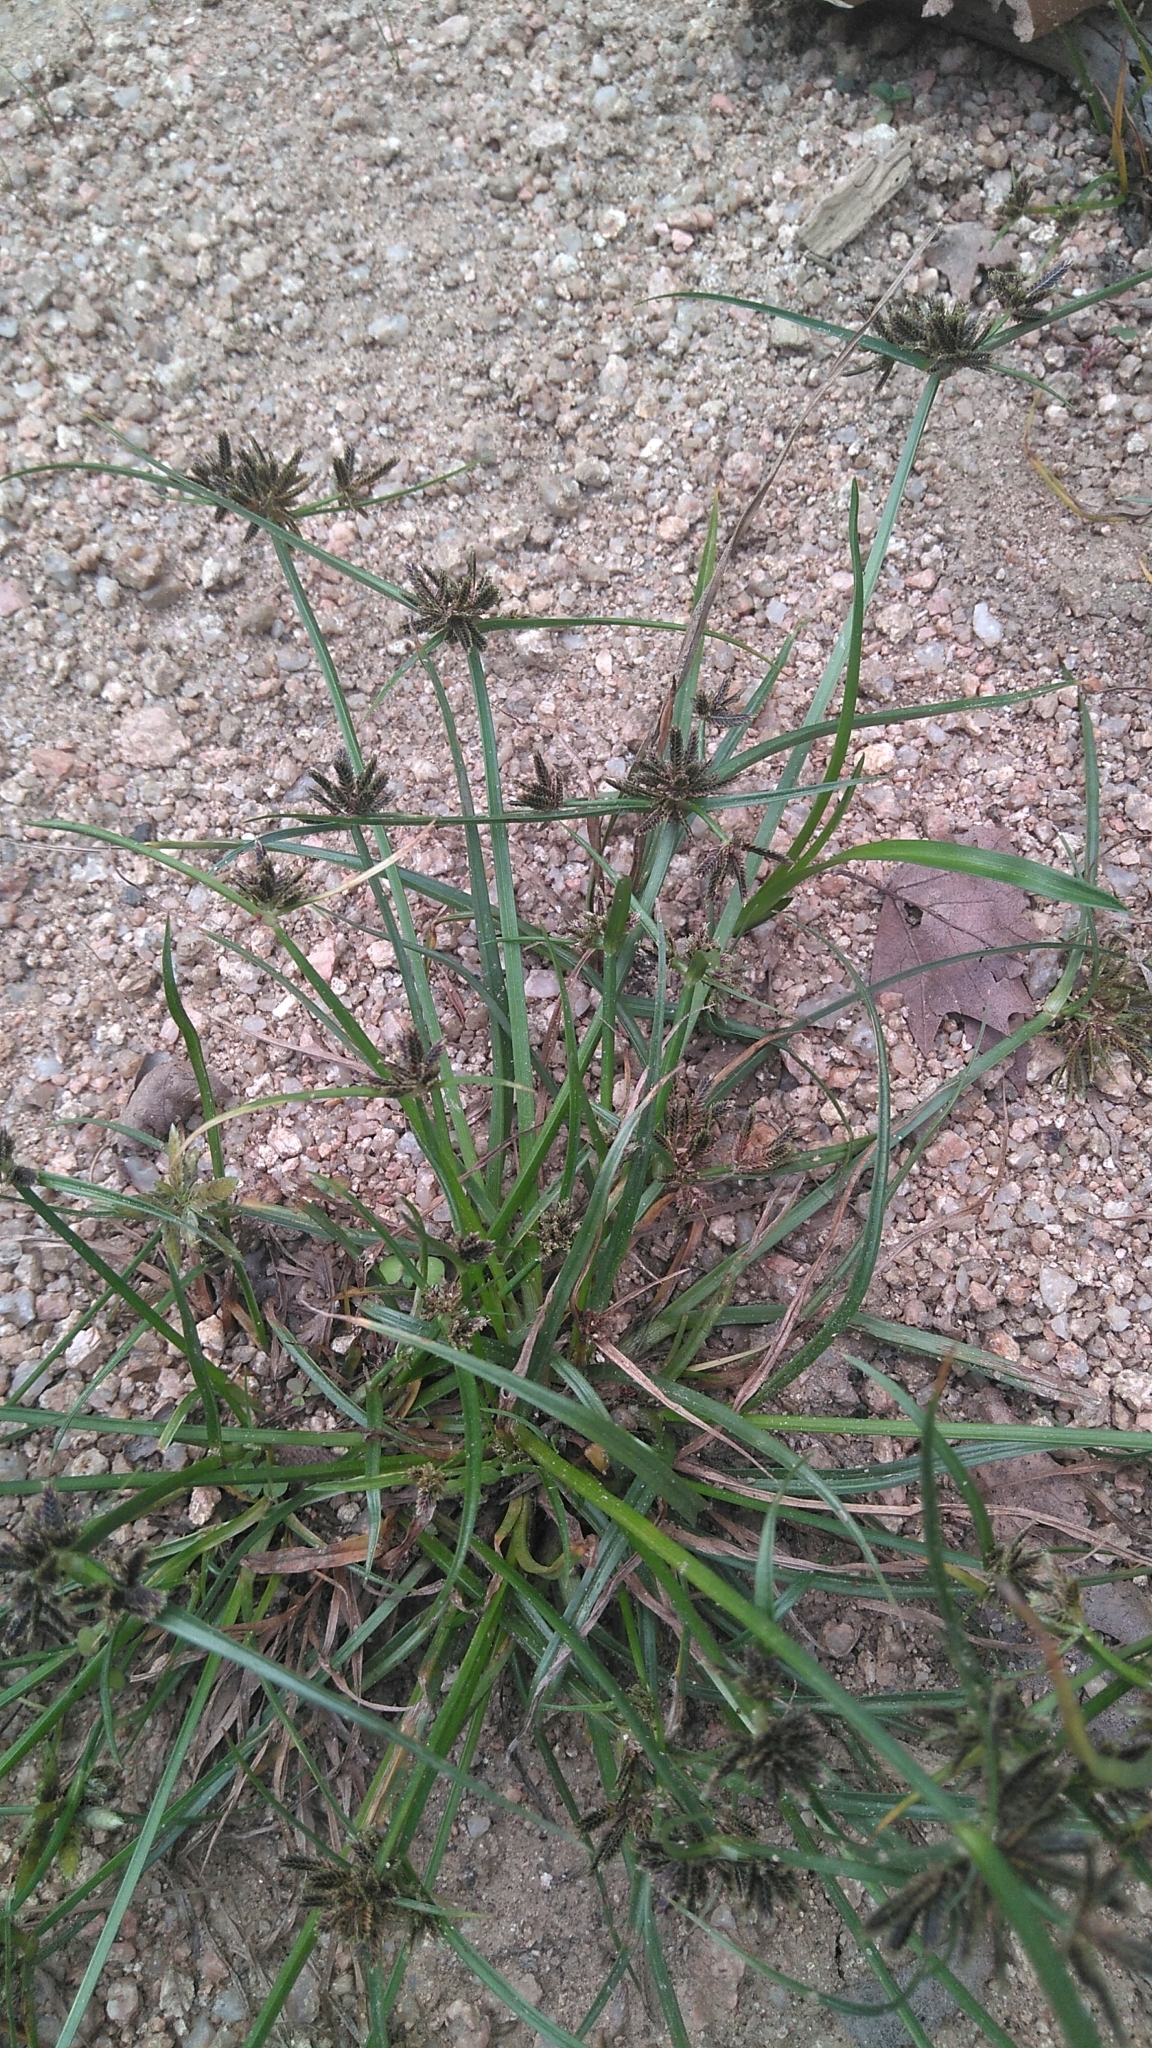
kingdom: Plantae
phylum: Tracheophyta
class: Liliopsida
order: Poales
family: Cyperaceae
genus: Cyperus
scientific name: Cyperus fuscus
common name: Brown galingale
